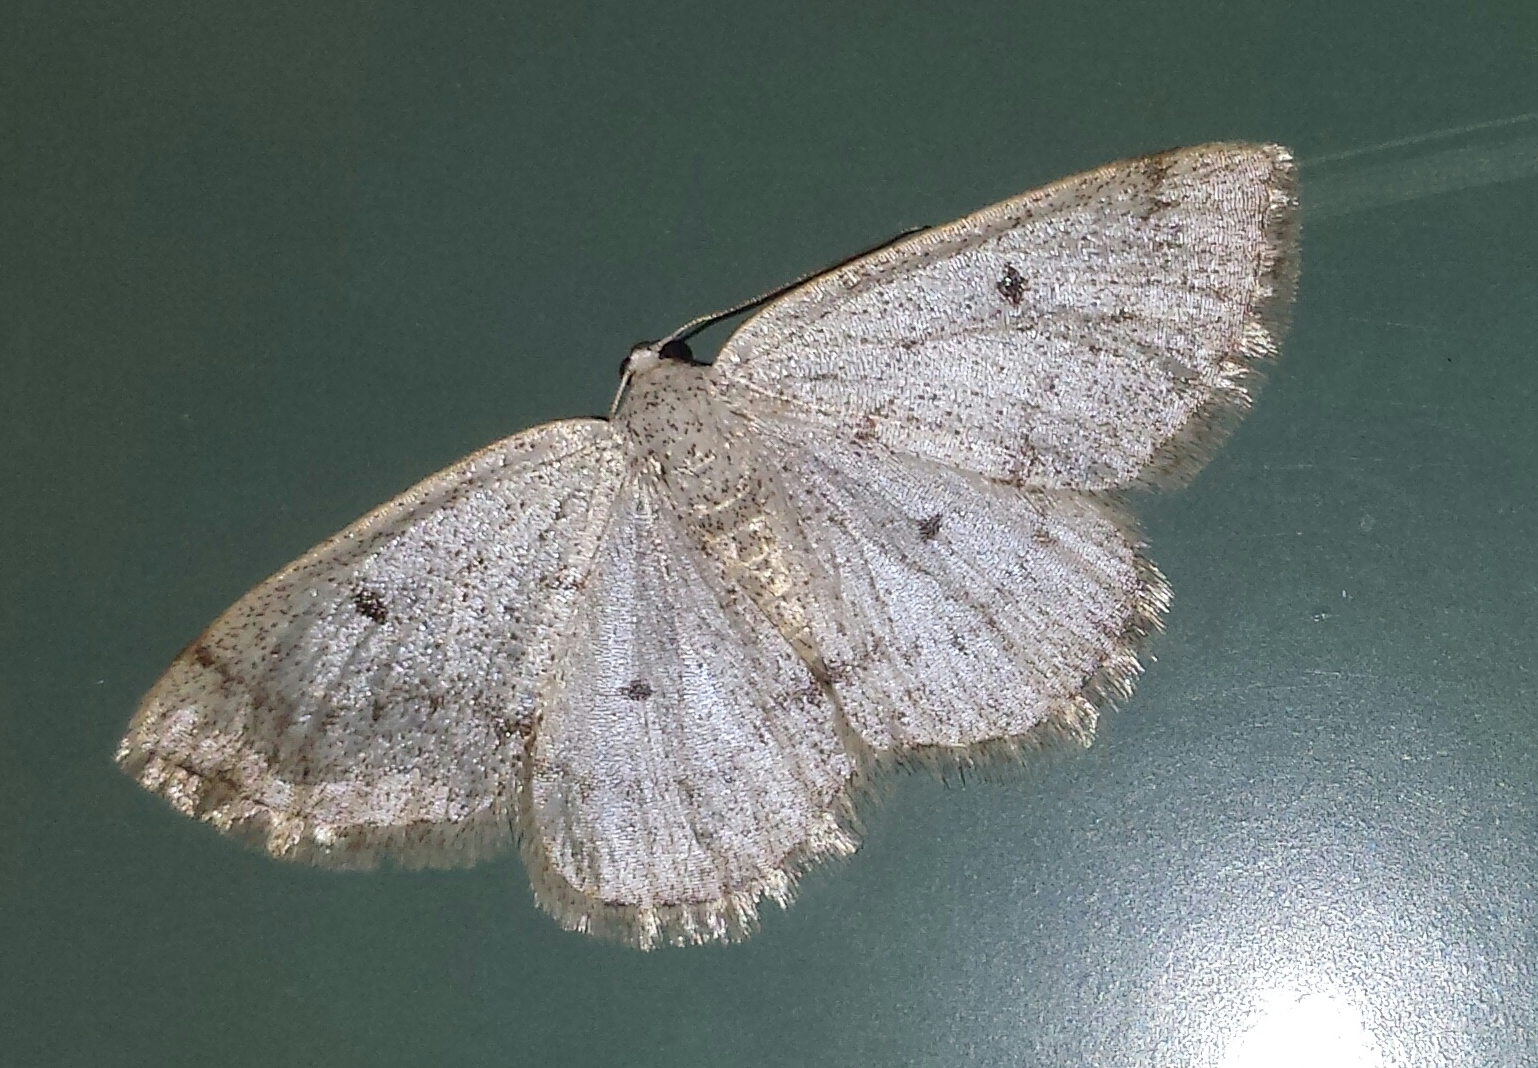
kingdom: Animalia
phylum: Arthropoda
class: Insecta
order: Lepidoptera
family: Geometridae
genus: Lomographa
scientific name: Lomographa glomeraria
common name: Gray spring moth
